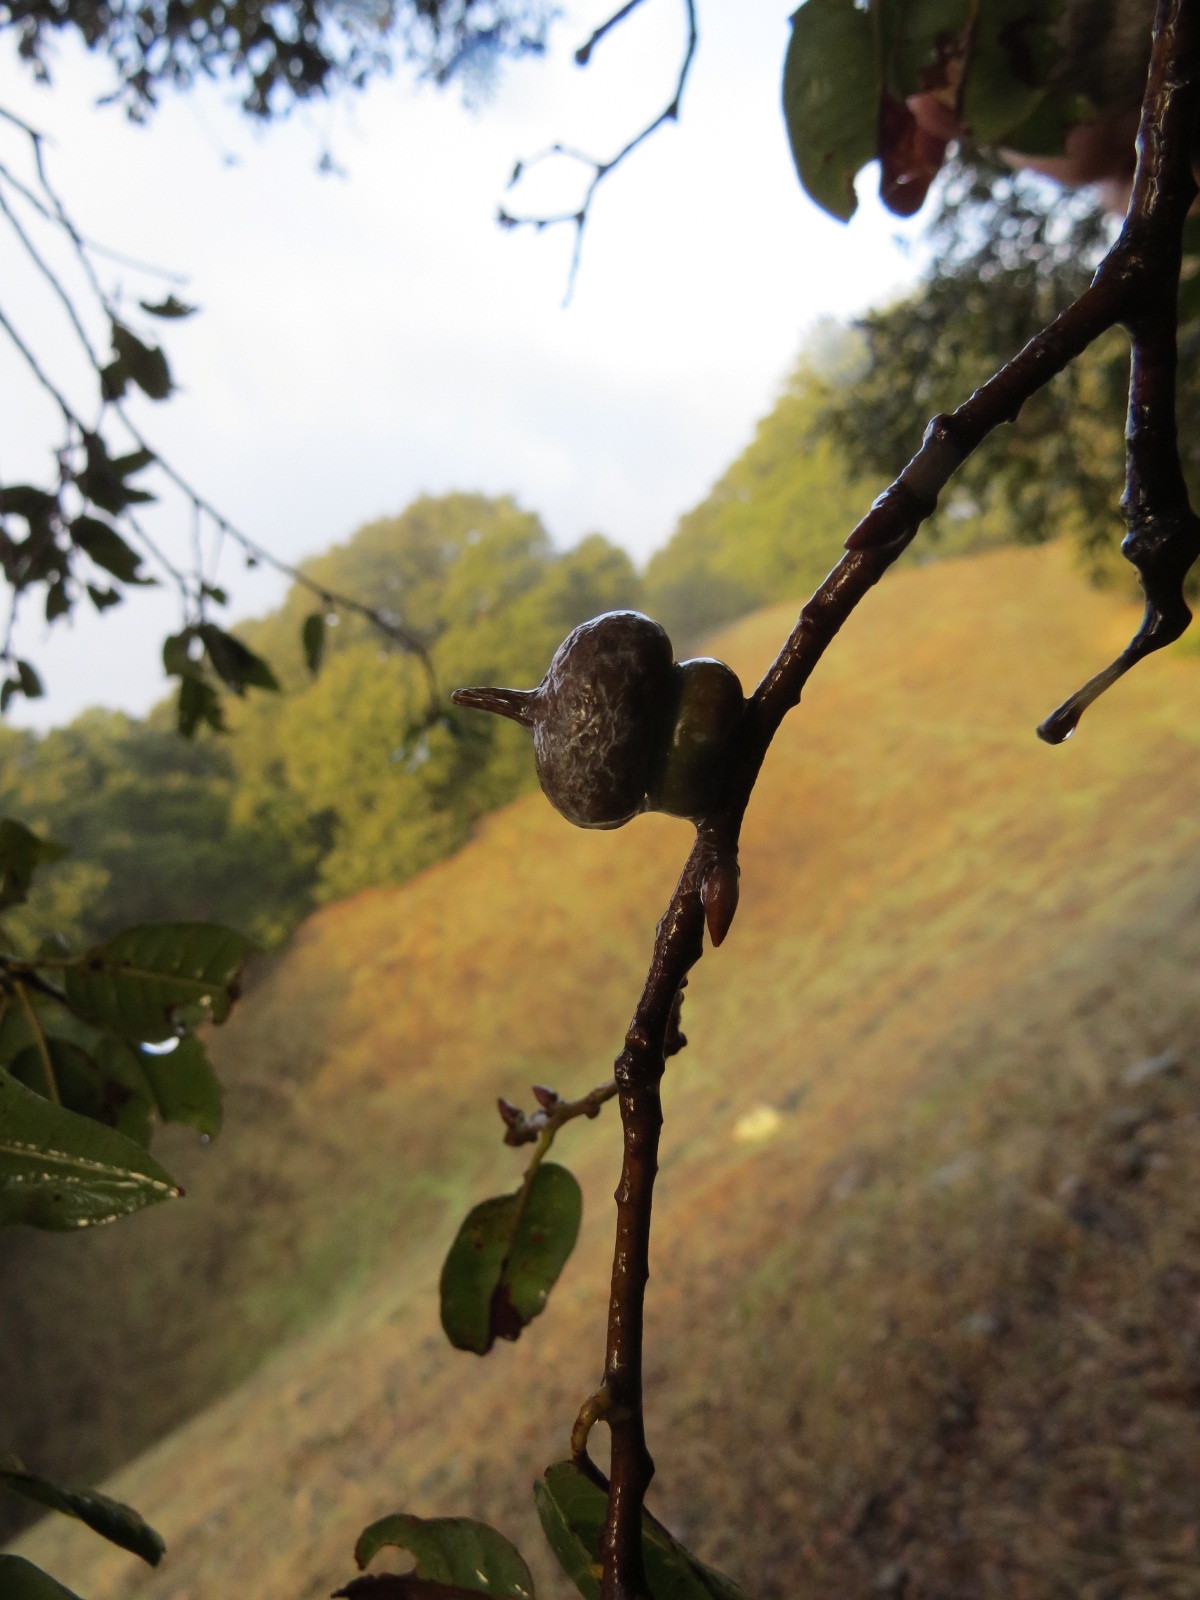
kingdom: Animalia
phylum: Arthropoda
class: Insecta
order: Hymenoptera
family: Cynipidae
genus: Heteroecus
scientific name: Heteroecus
